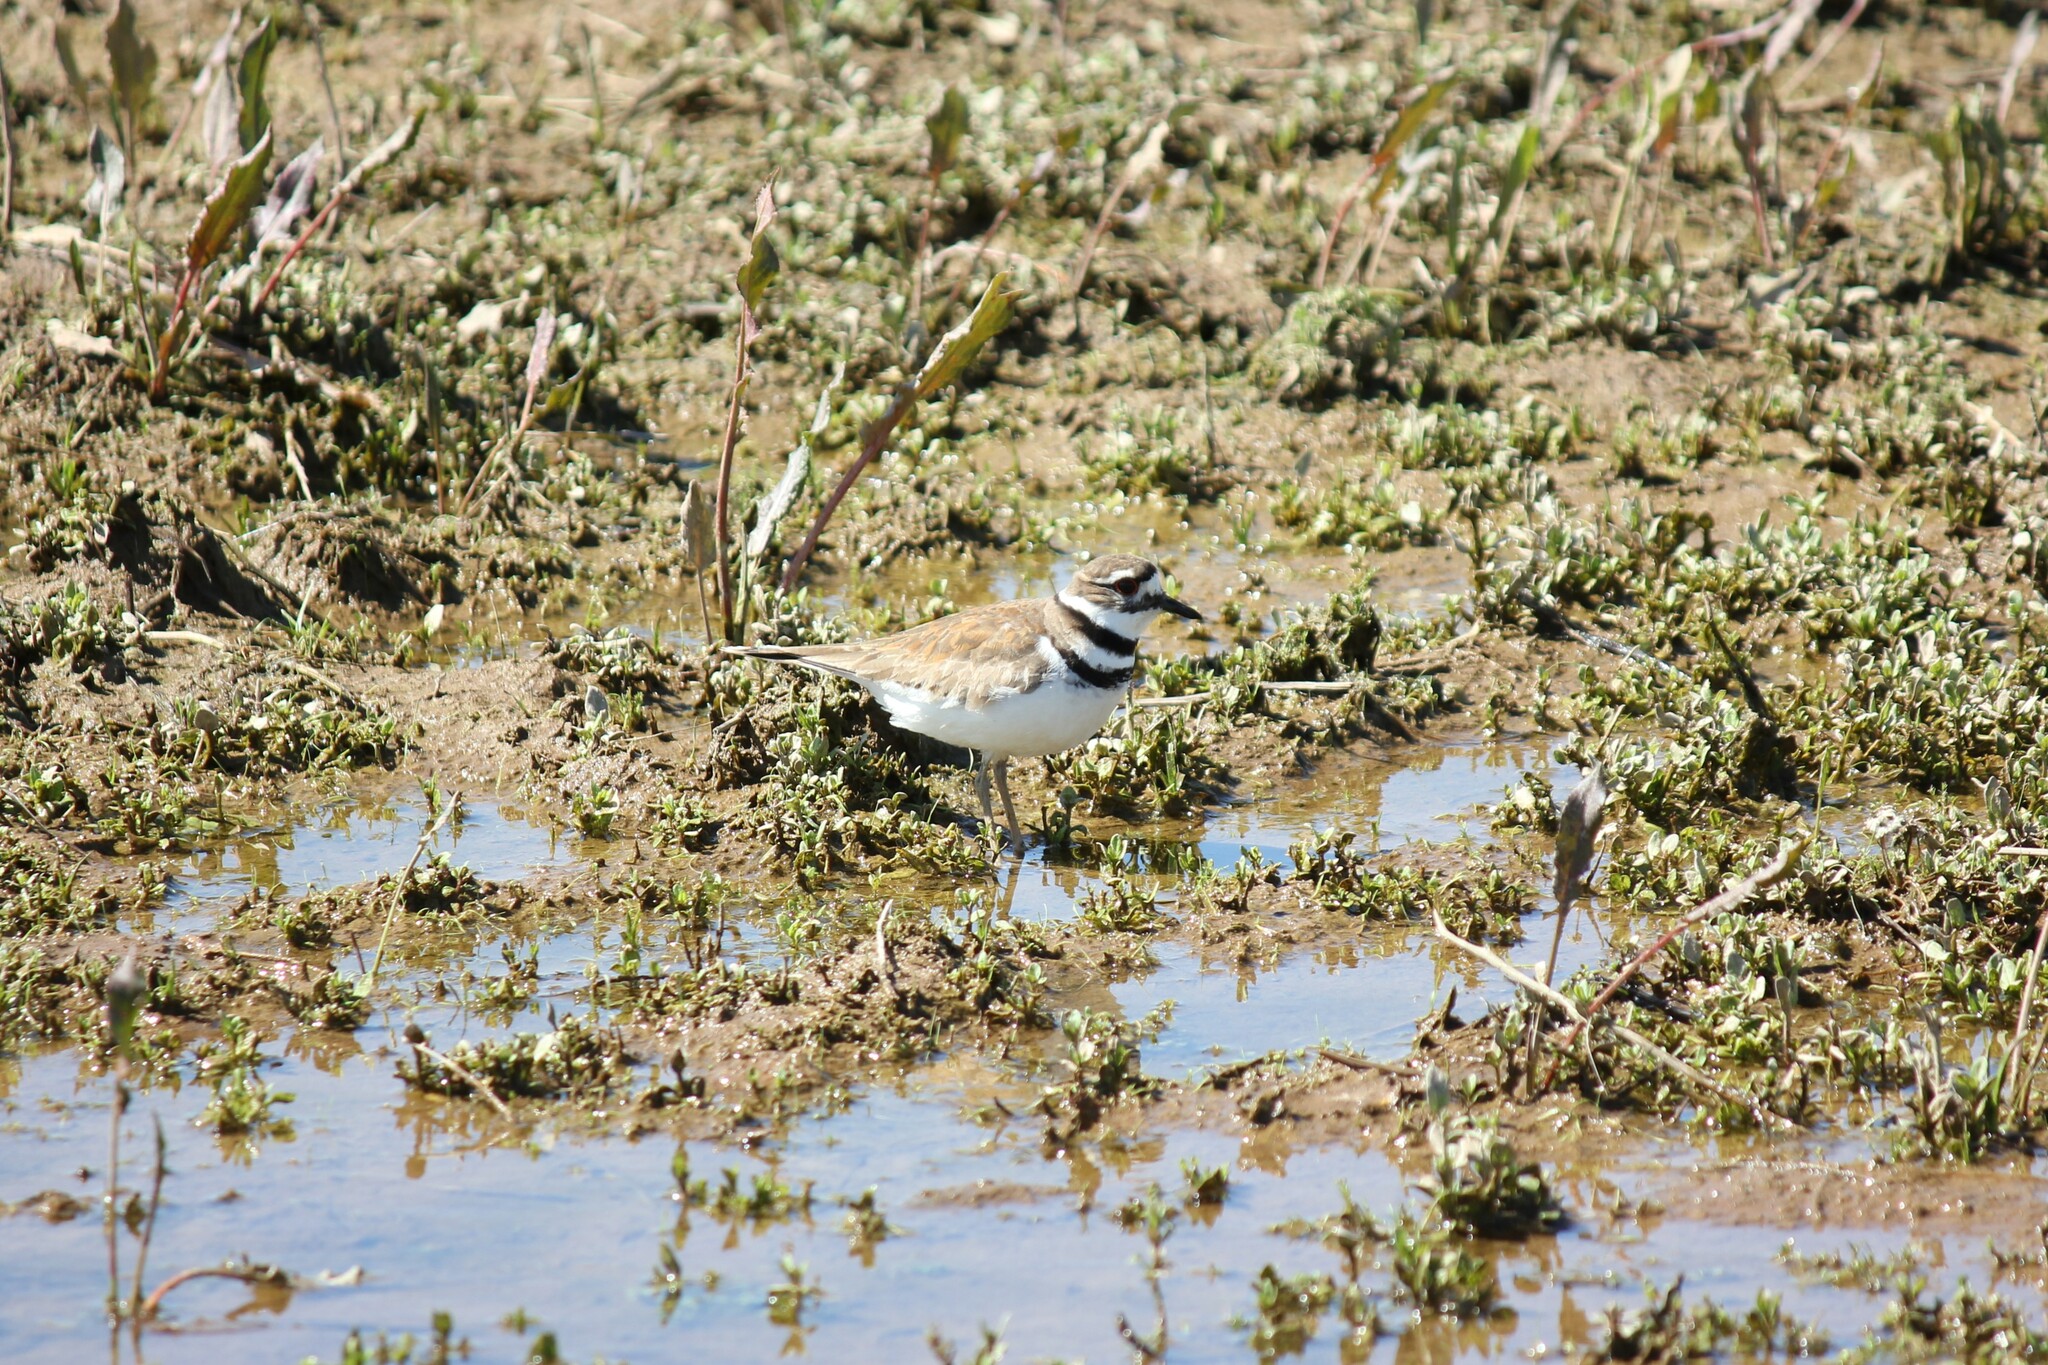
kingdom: Animalia
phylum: Chordata
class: Aves
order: Charadriiformes
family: Charadriidae
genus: Charadrius
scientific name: Charadrius vociferus
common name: Killdeer
